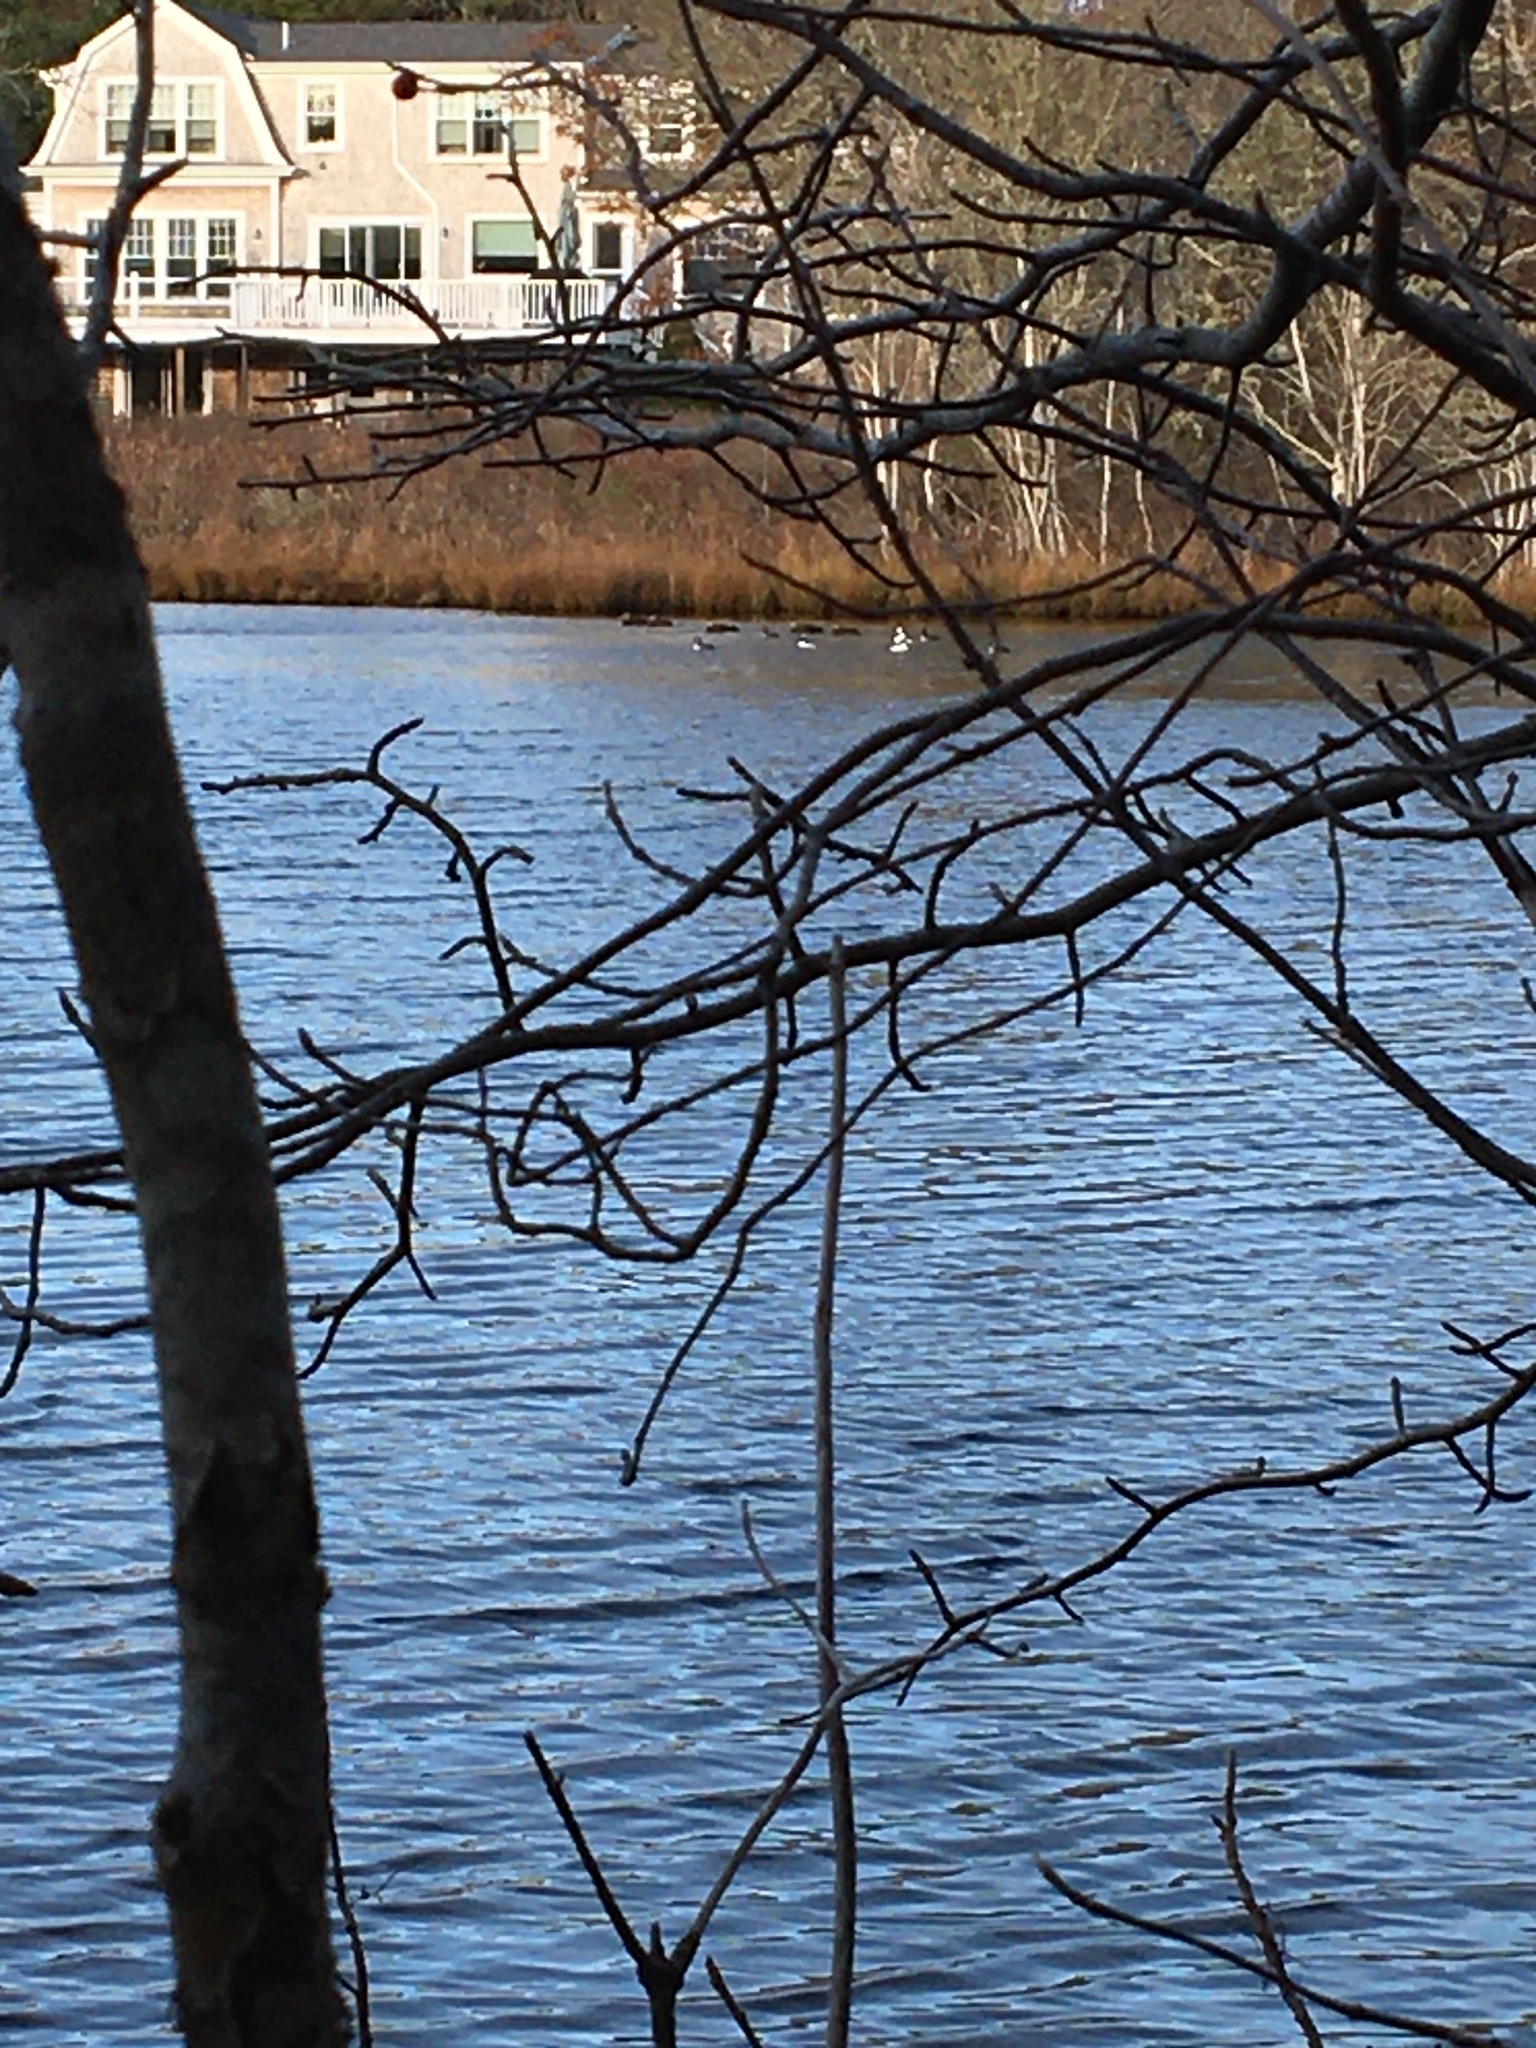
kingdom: Animalia
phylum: Chordata
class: Aves
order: Anseriformes
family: Anatidae
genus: Bucephala
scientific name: Bucephala albeola
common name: Bufflehead
